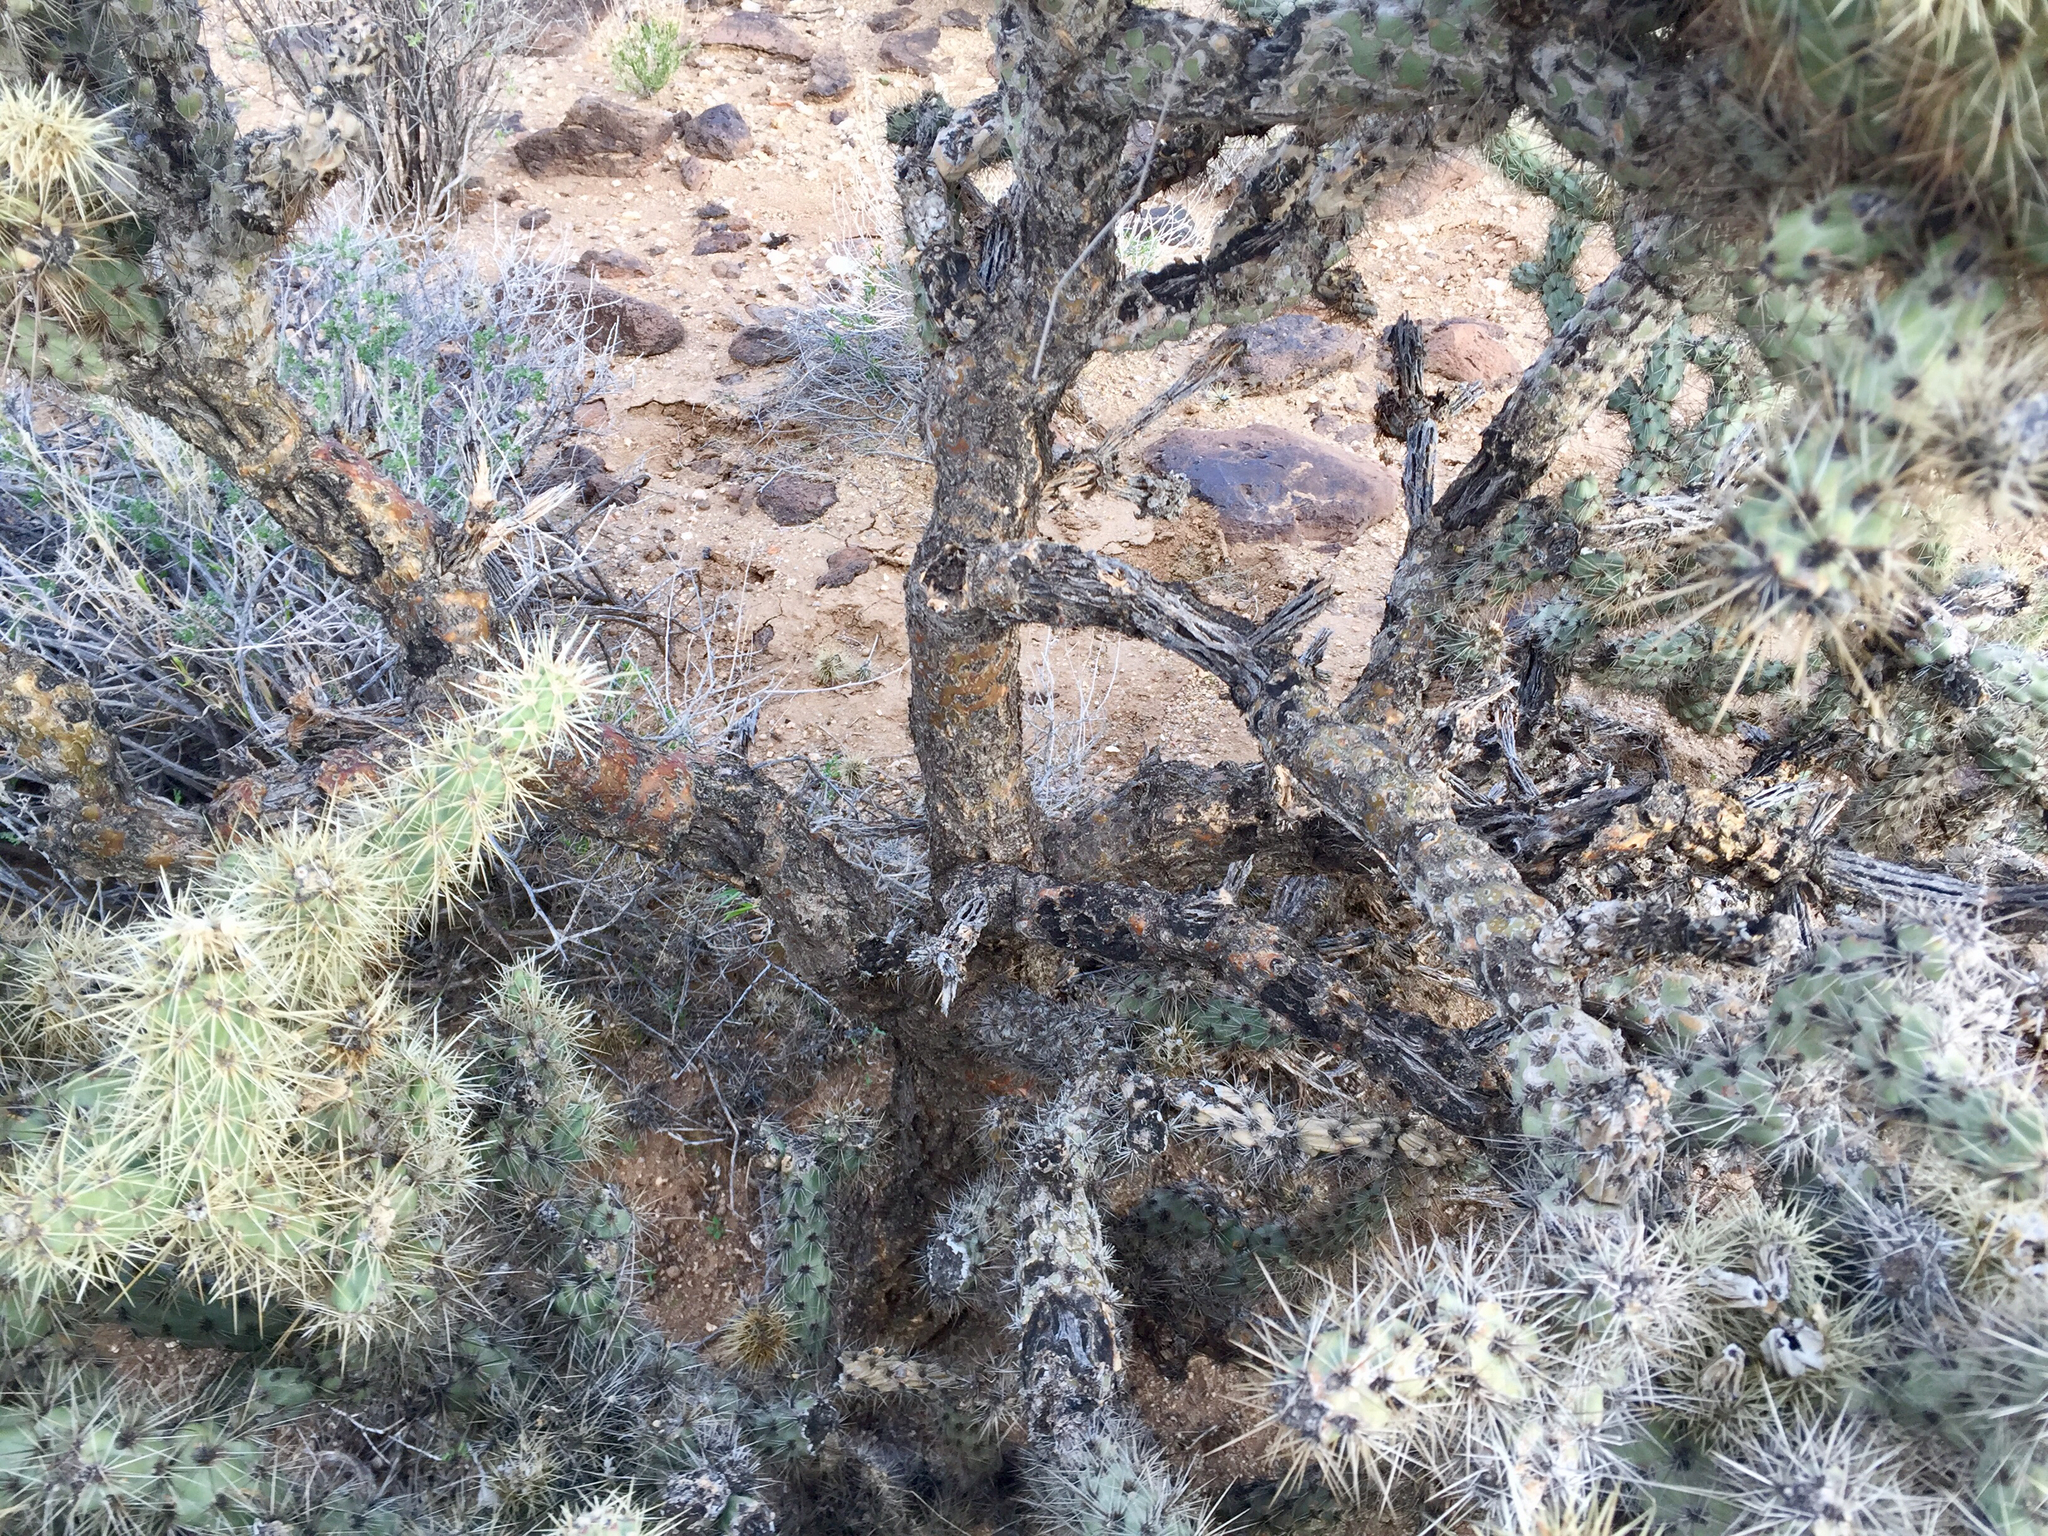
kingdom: Plantae
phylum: Tracheophyta
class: Magnoliopsida
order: Caryophyllales
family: Cactaceae
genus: Cylindropuntia
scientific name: Cylindropuntia acanthocarpa
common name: Buckhorn cholla
